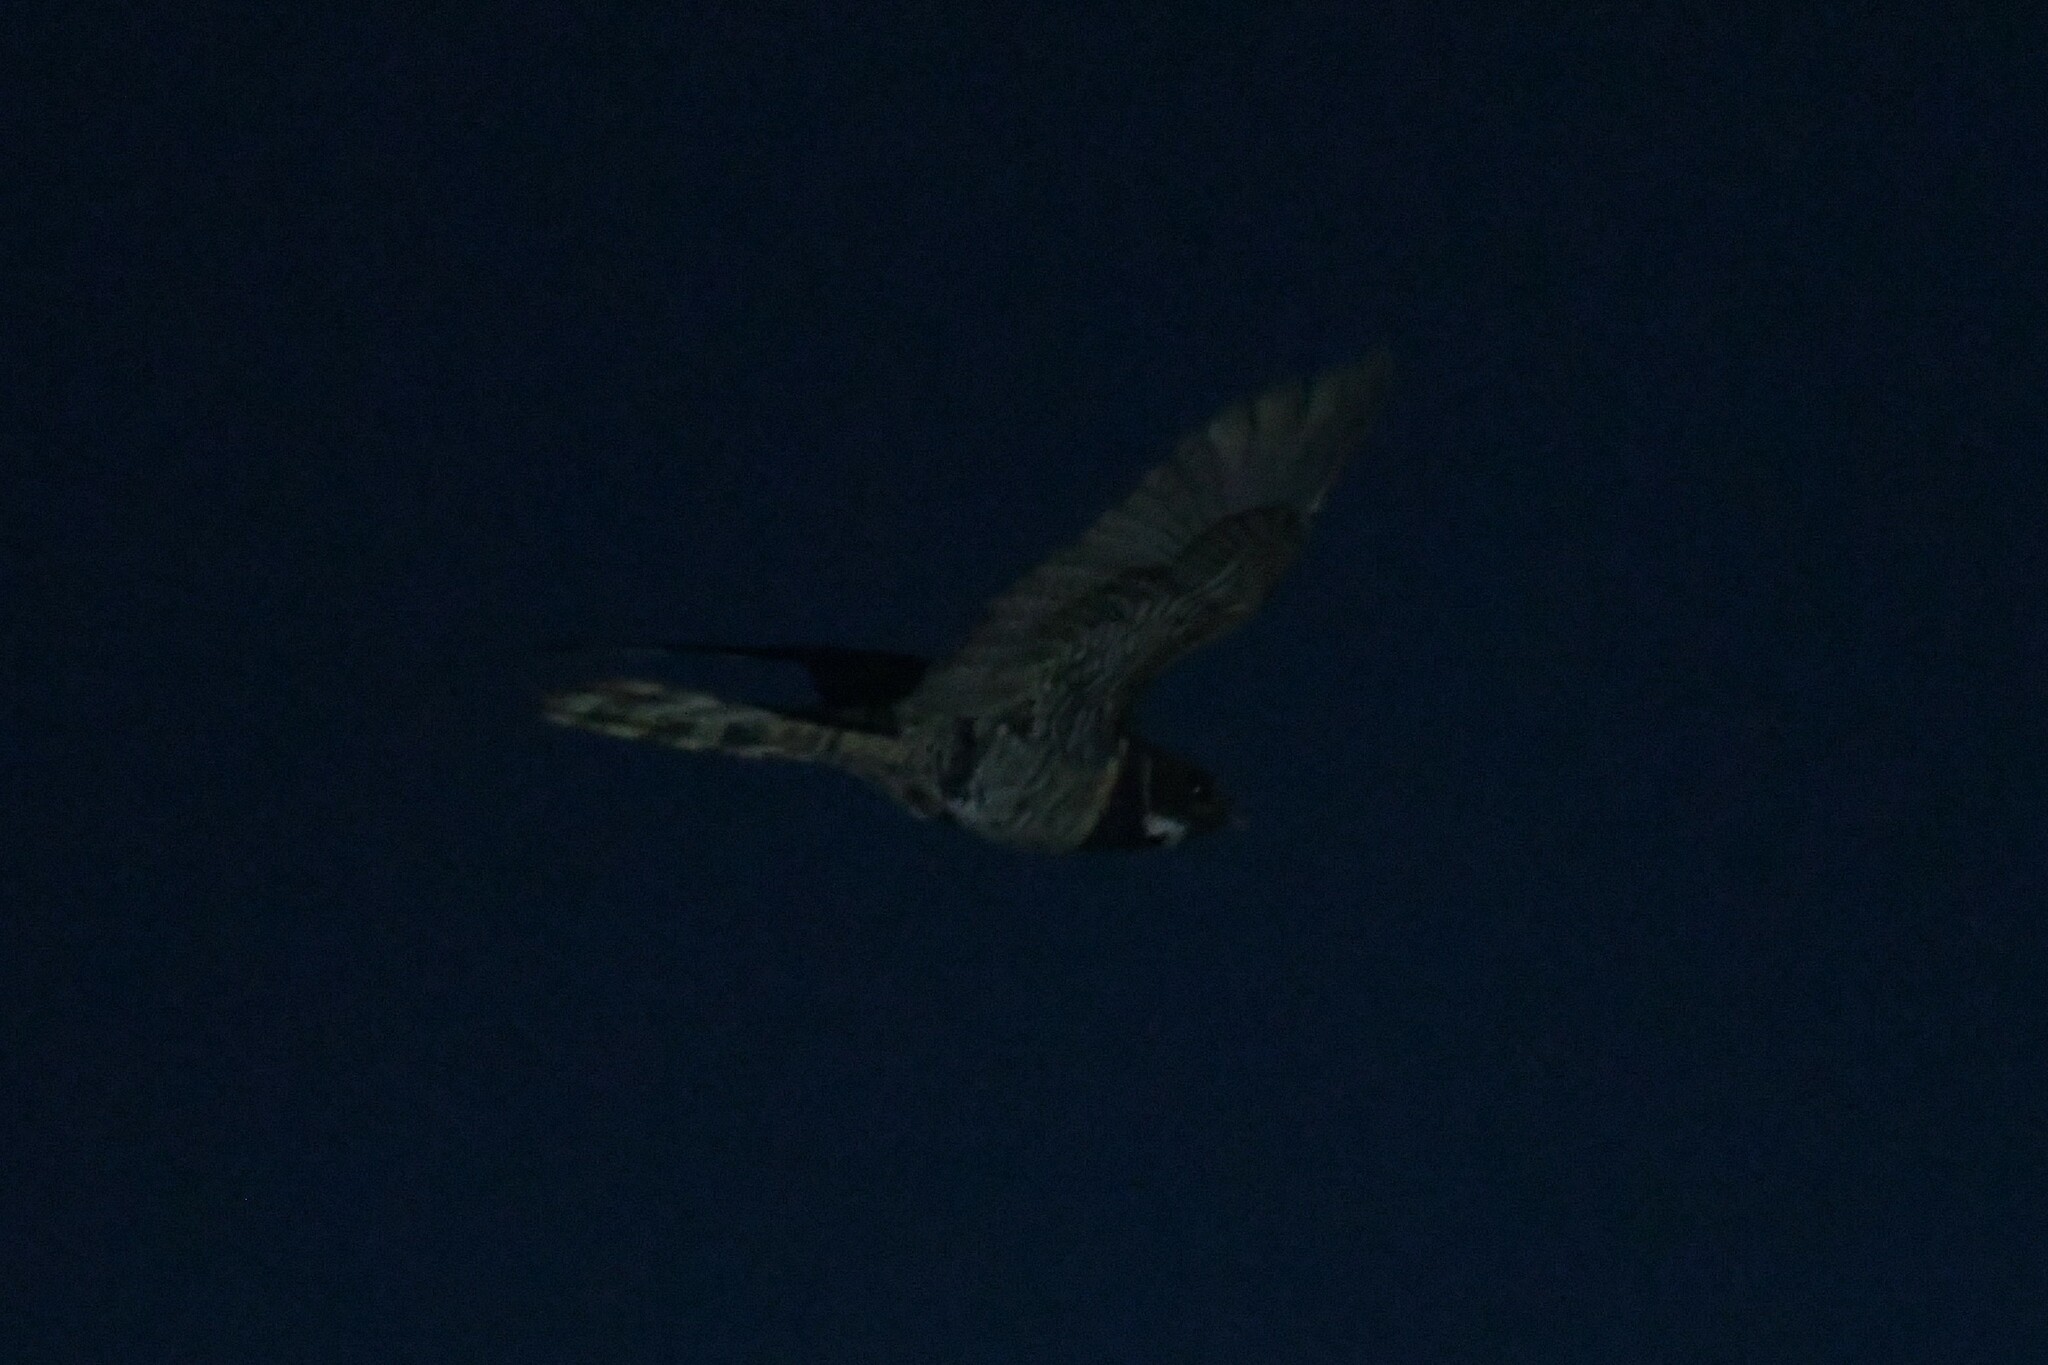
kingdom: Animalia
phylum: Chordata
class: Aves
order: Caprimulgiformes
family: Caprimulgidae
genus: Lyncornis
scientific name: Lyncornis macrotis
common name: Great eared-nightjar
